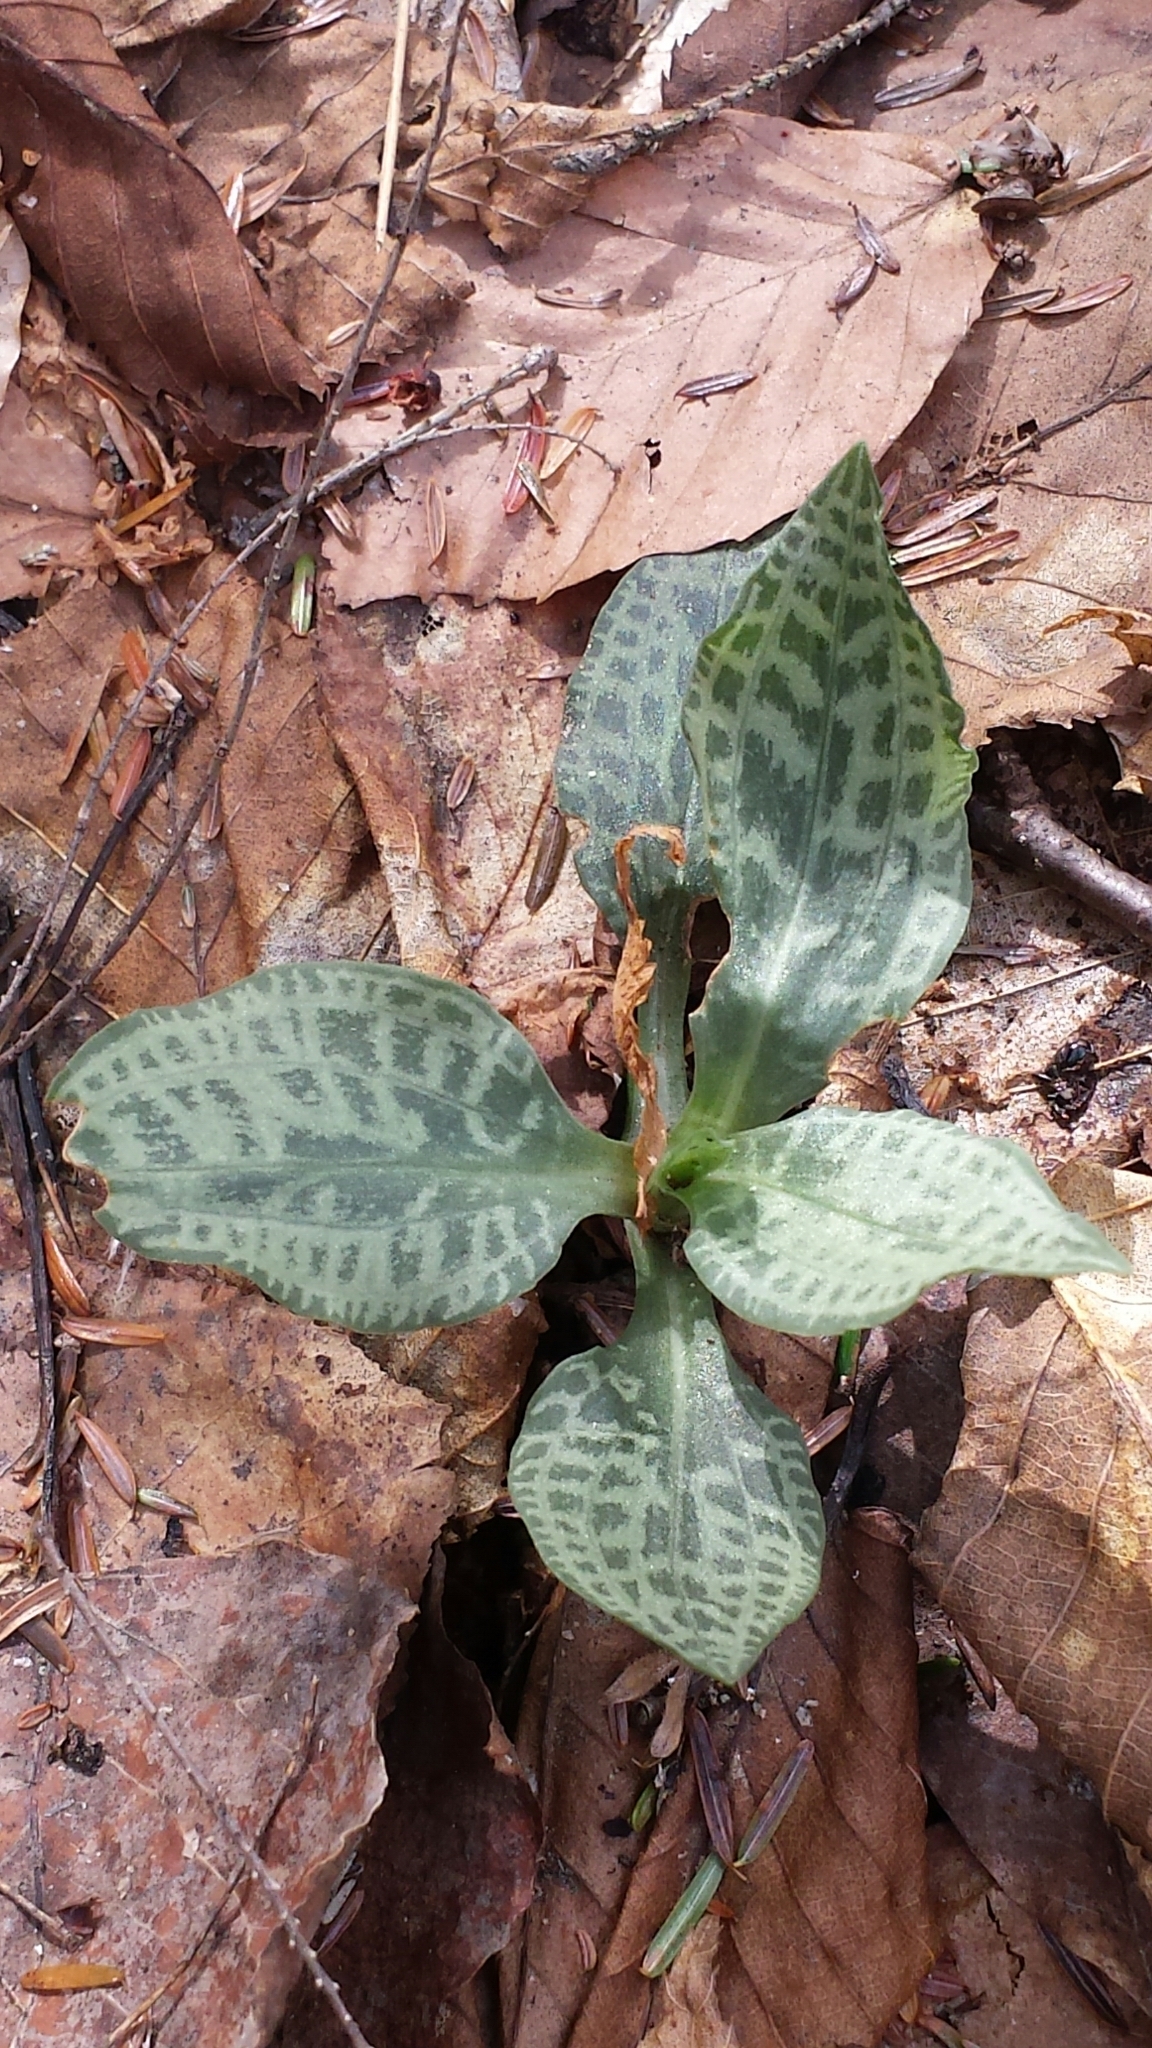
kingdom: Plantae
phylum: Tracheophyta
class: Liliopsida
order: Asparagales
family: Orchidaceae
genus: Goodyera
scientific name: Goodyera tesselata
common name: Checkered rattlesnake-plantain
